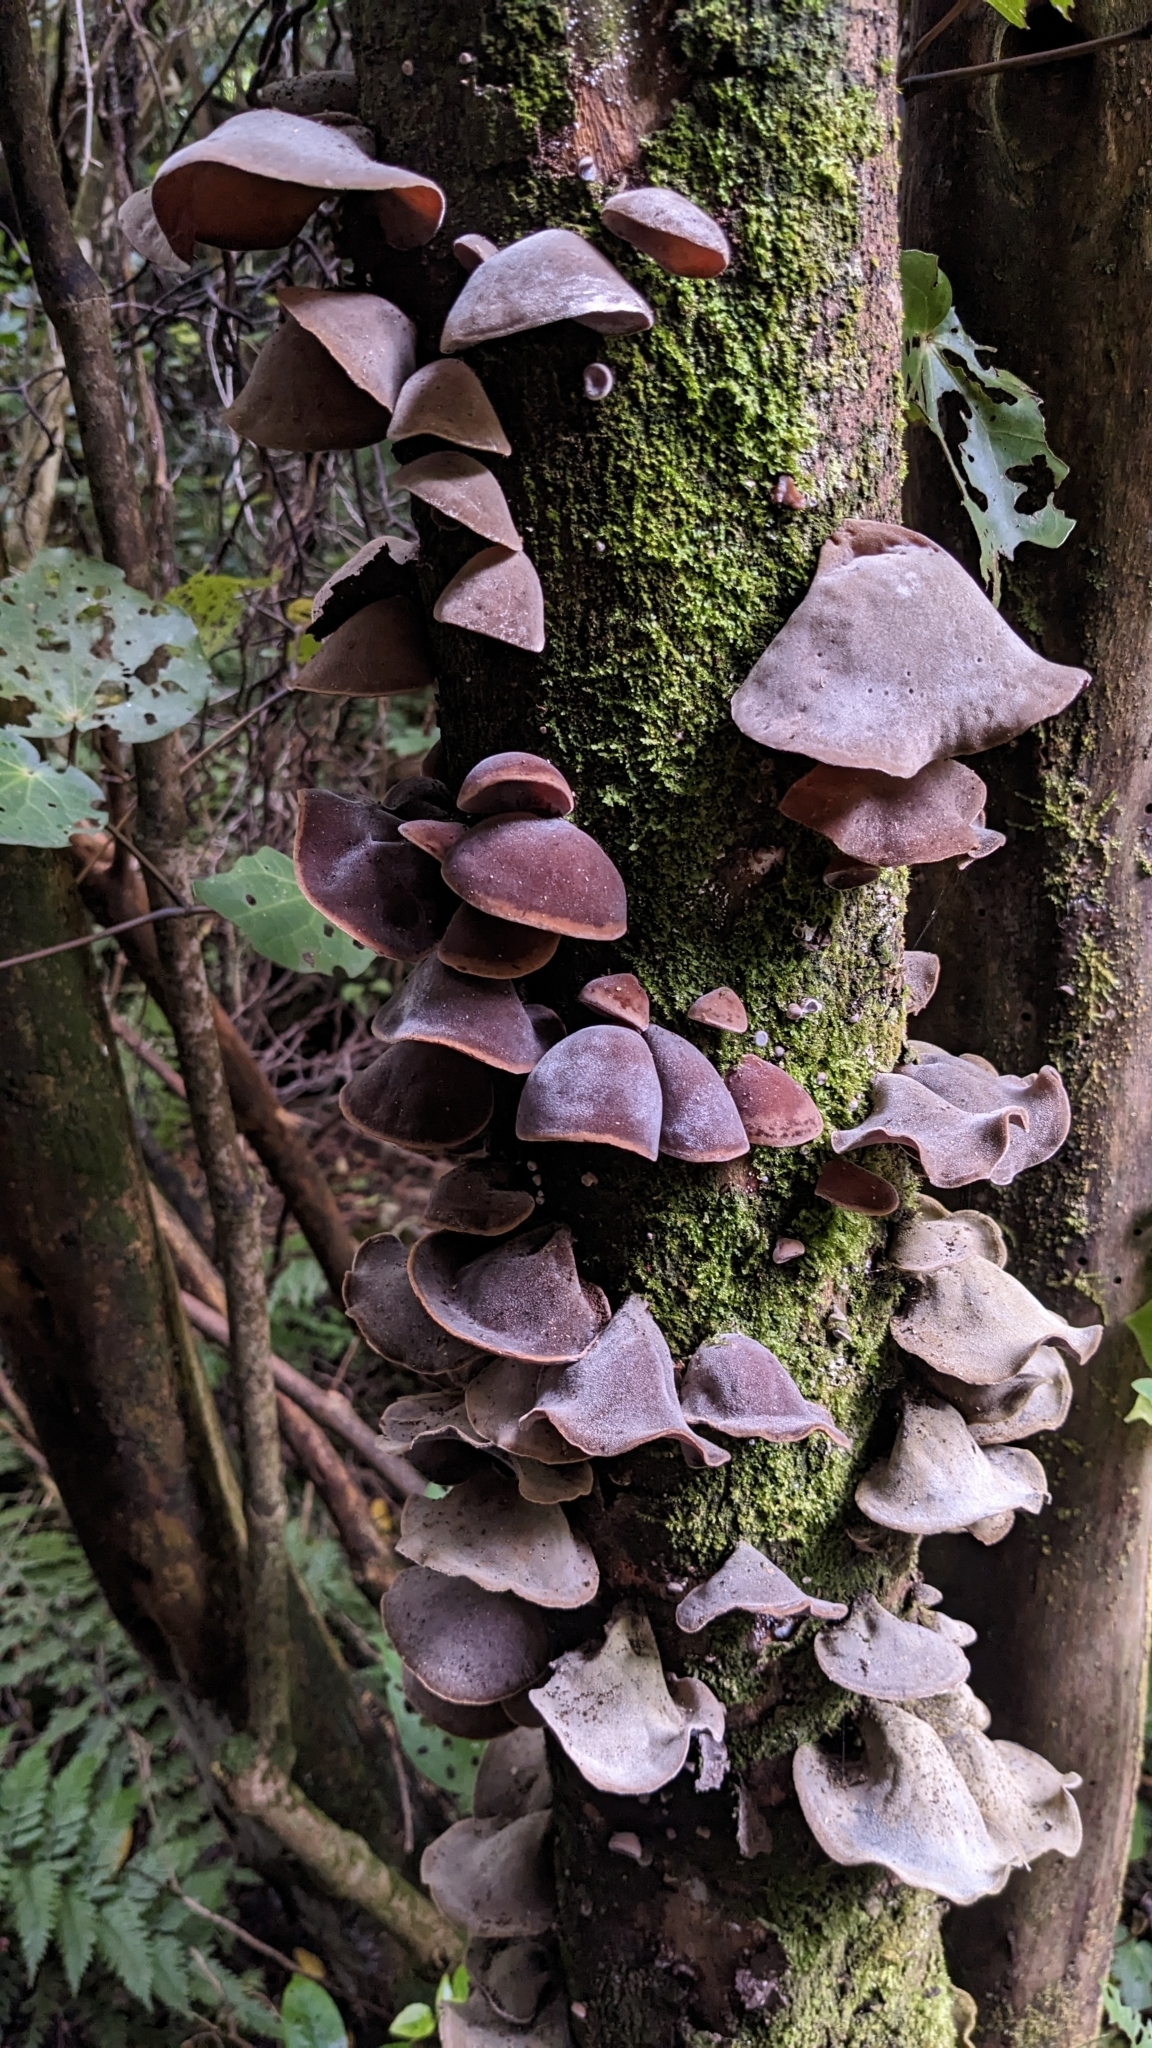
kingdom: Fungi
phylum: Basidiomycota
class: Agaricomycetes
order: Auriculariales
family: Auriculariaceae
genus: Auricularia
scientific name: Auricularia cornea
